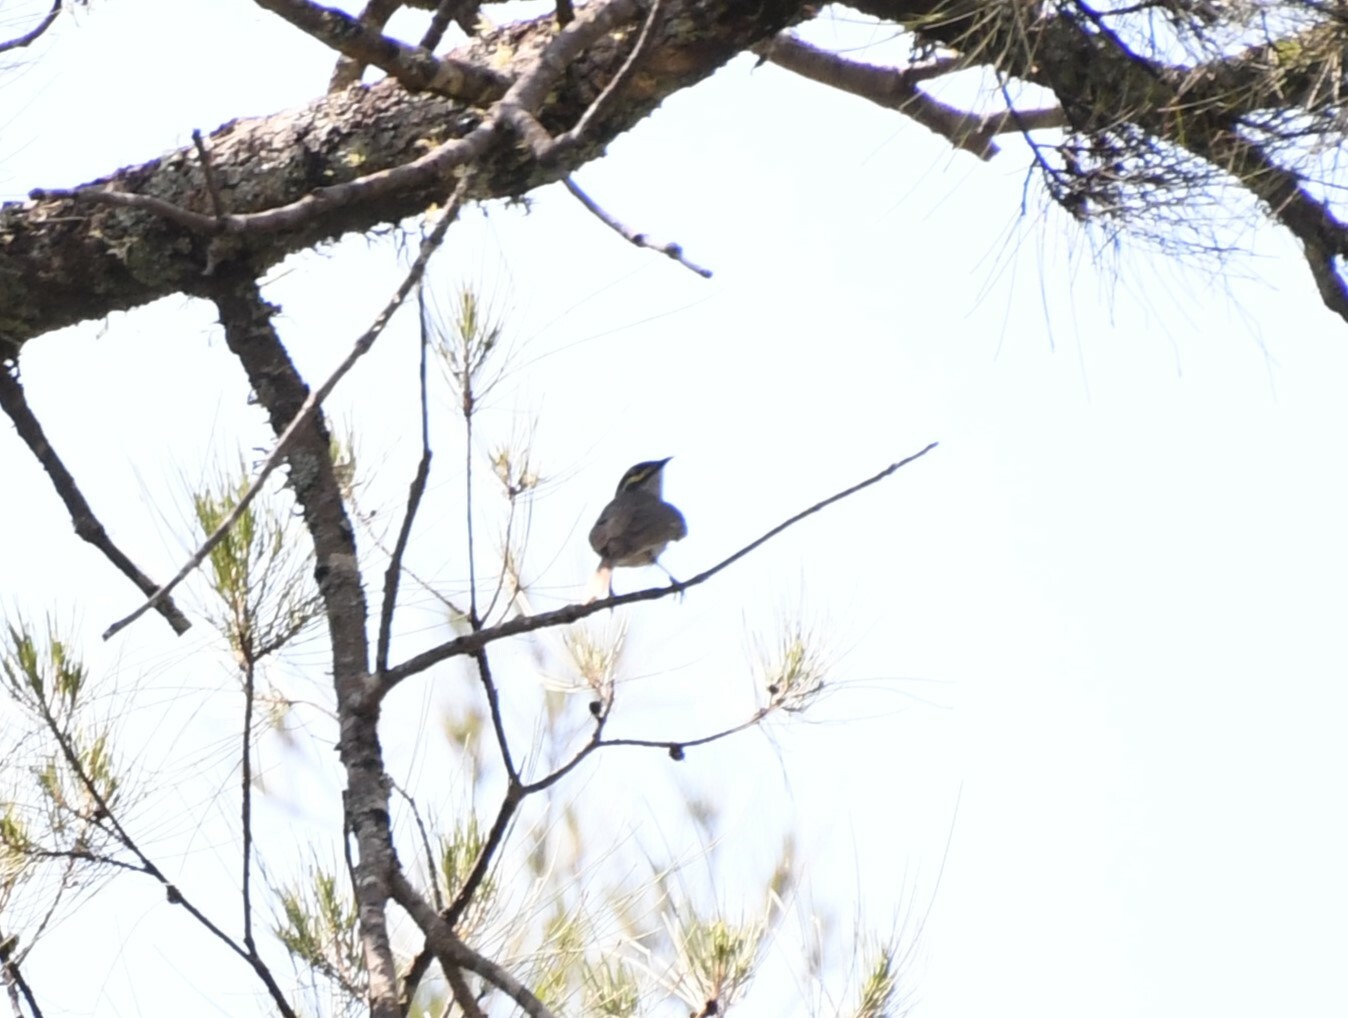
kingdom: Animalia
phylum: Chordata
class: Aves
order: Passeriformes
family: Meliphagidae
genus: Caligavis
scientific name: Caligavis chrysops
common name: Yellow-faced honeyeater
